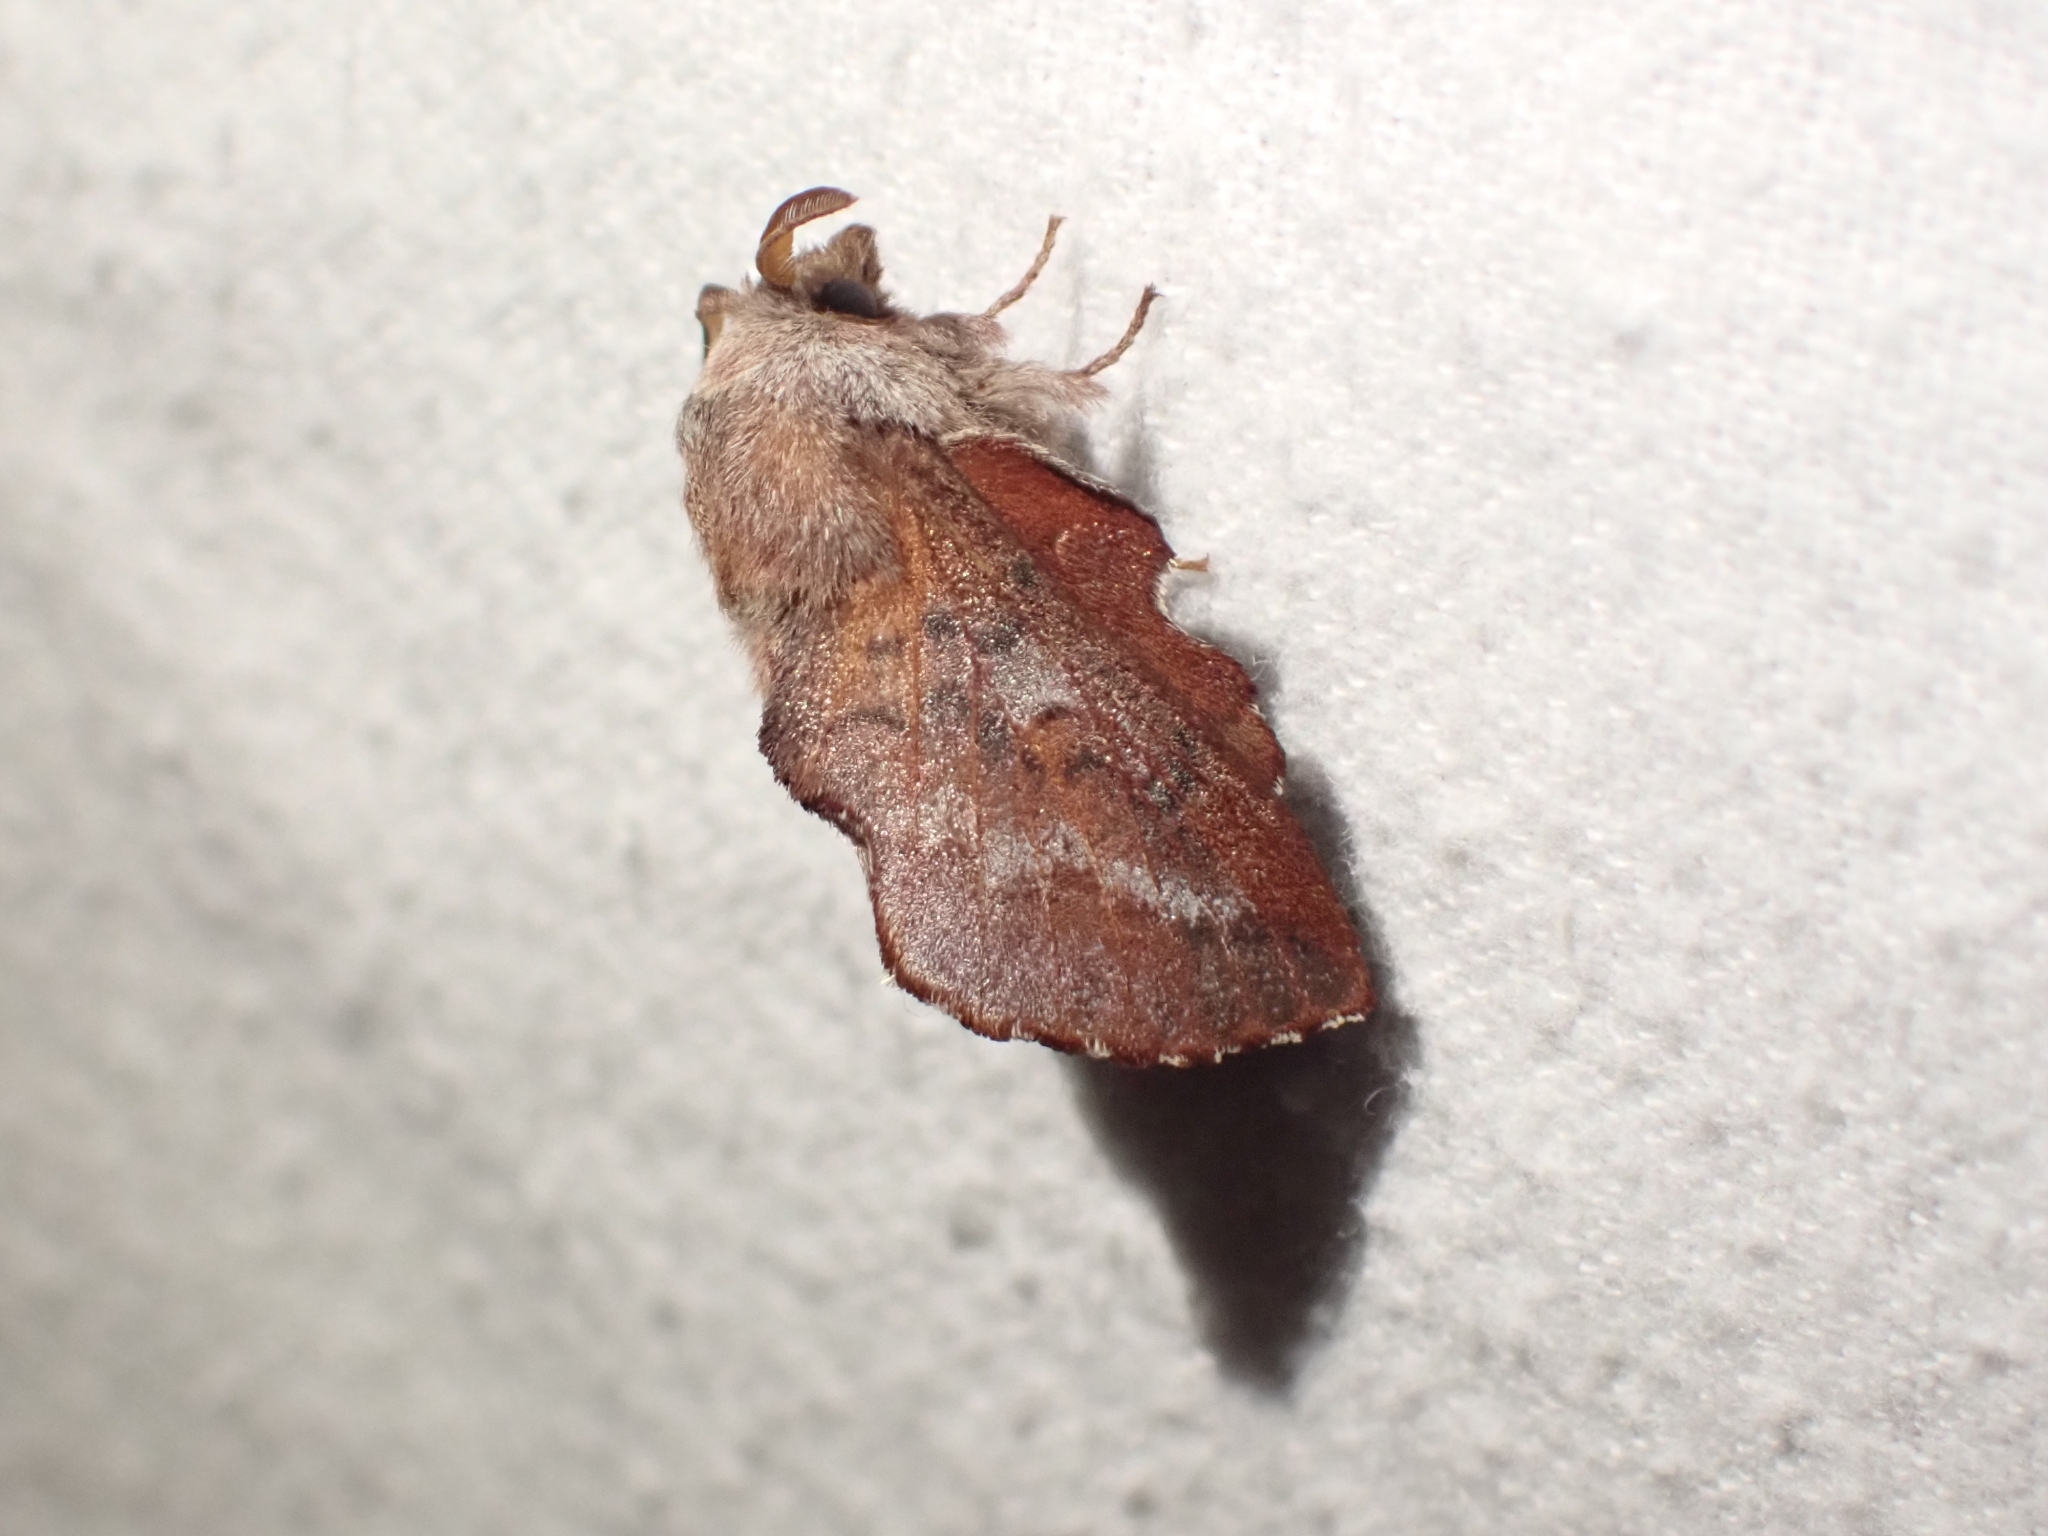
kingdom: Animalia
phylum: Arthropoda
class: Insecta
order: Lepidoptera
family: Lasiocampidae
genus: Phyllodesma
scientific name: Phyllodesma americana
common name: American lappet moth
